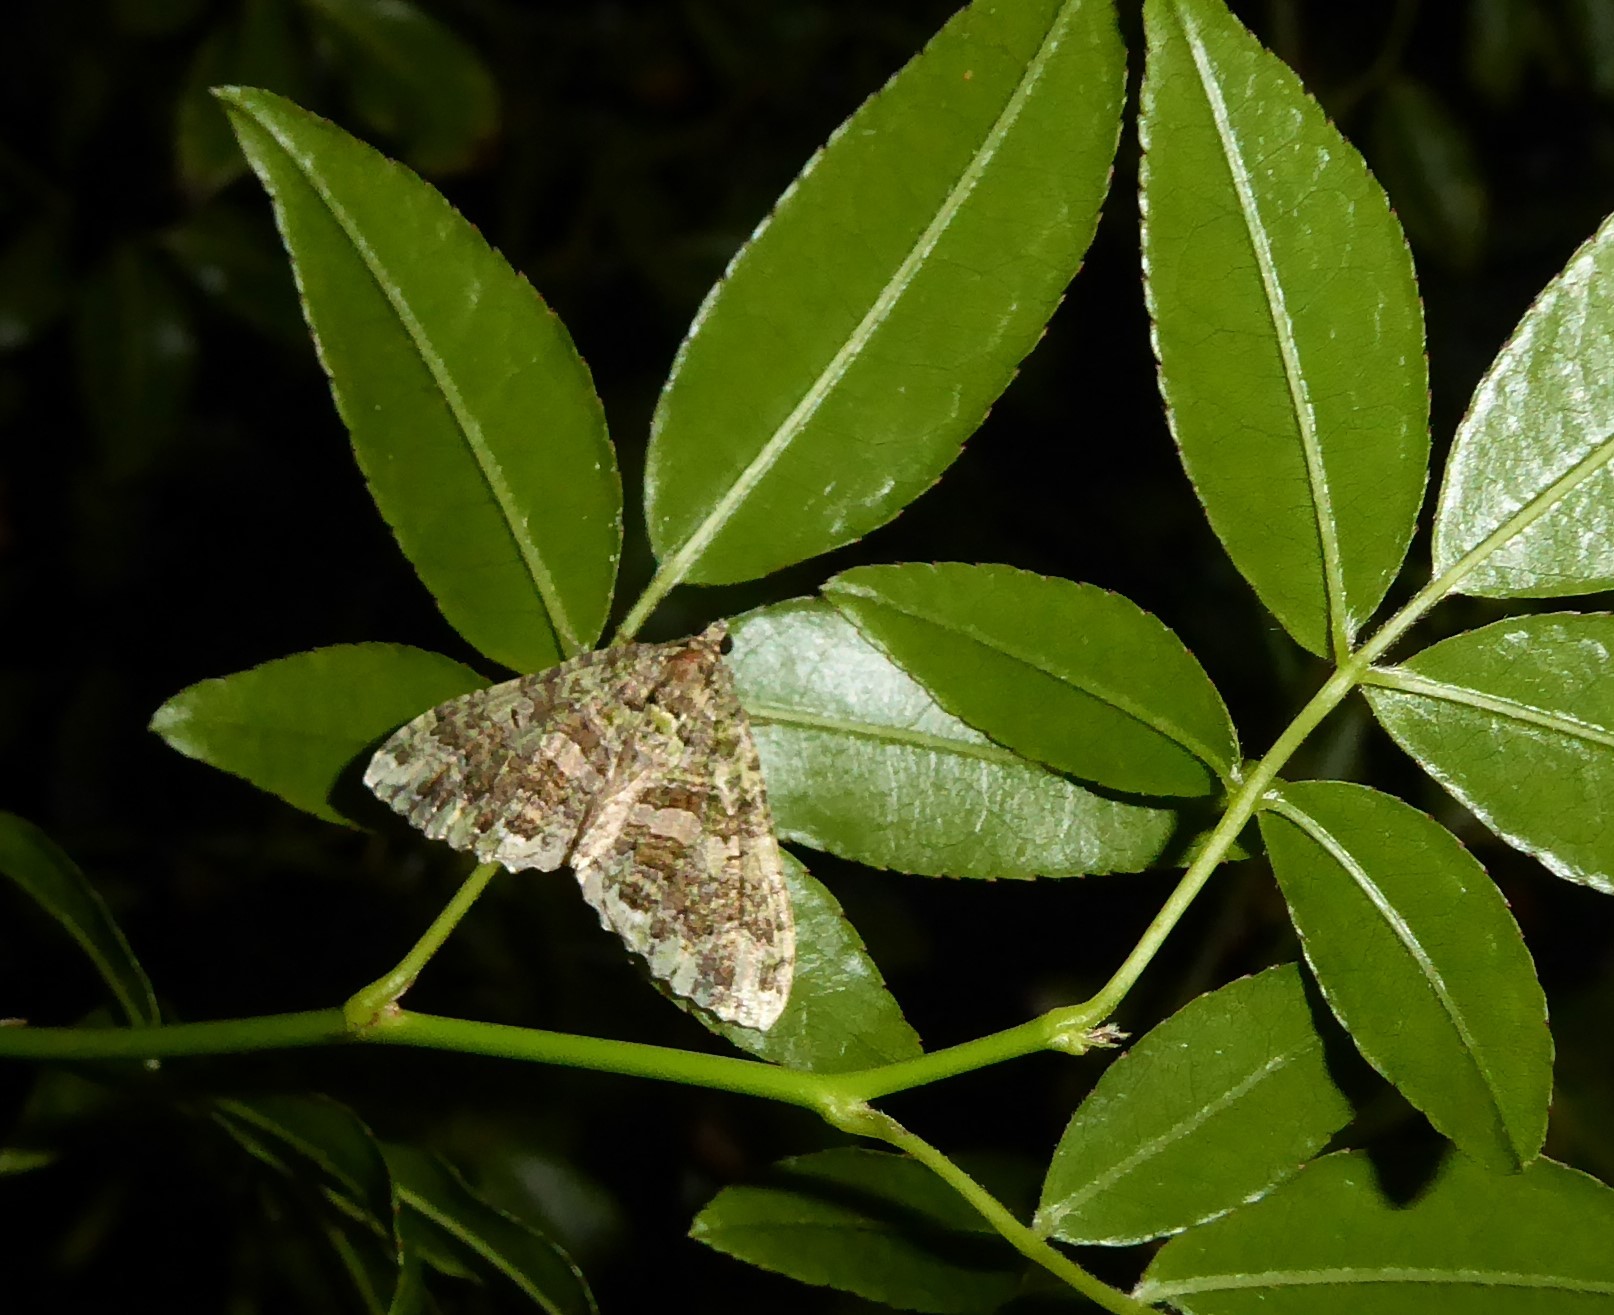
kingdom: Animalia
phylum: Arthropoda
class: Insecta
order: Lepidoptera
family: Geometridae
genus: Austrocidaria
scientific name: Austrocidaria similata
